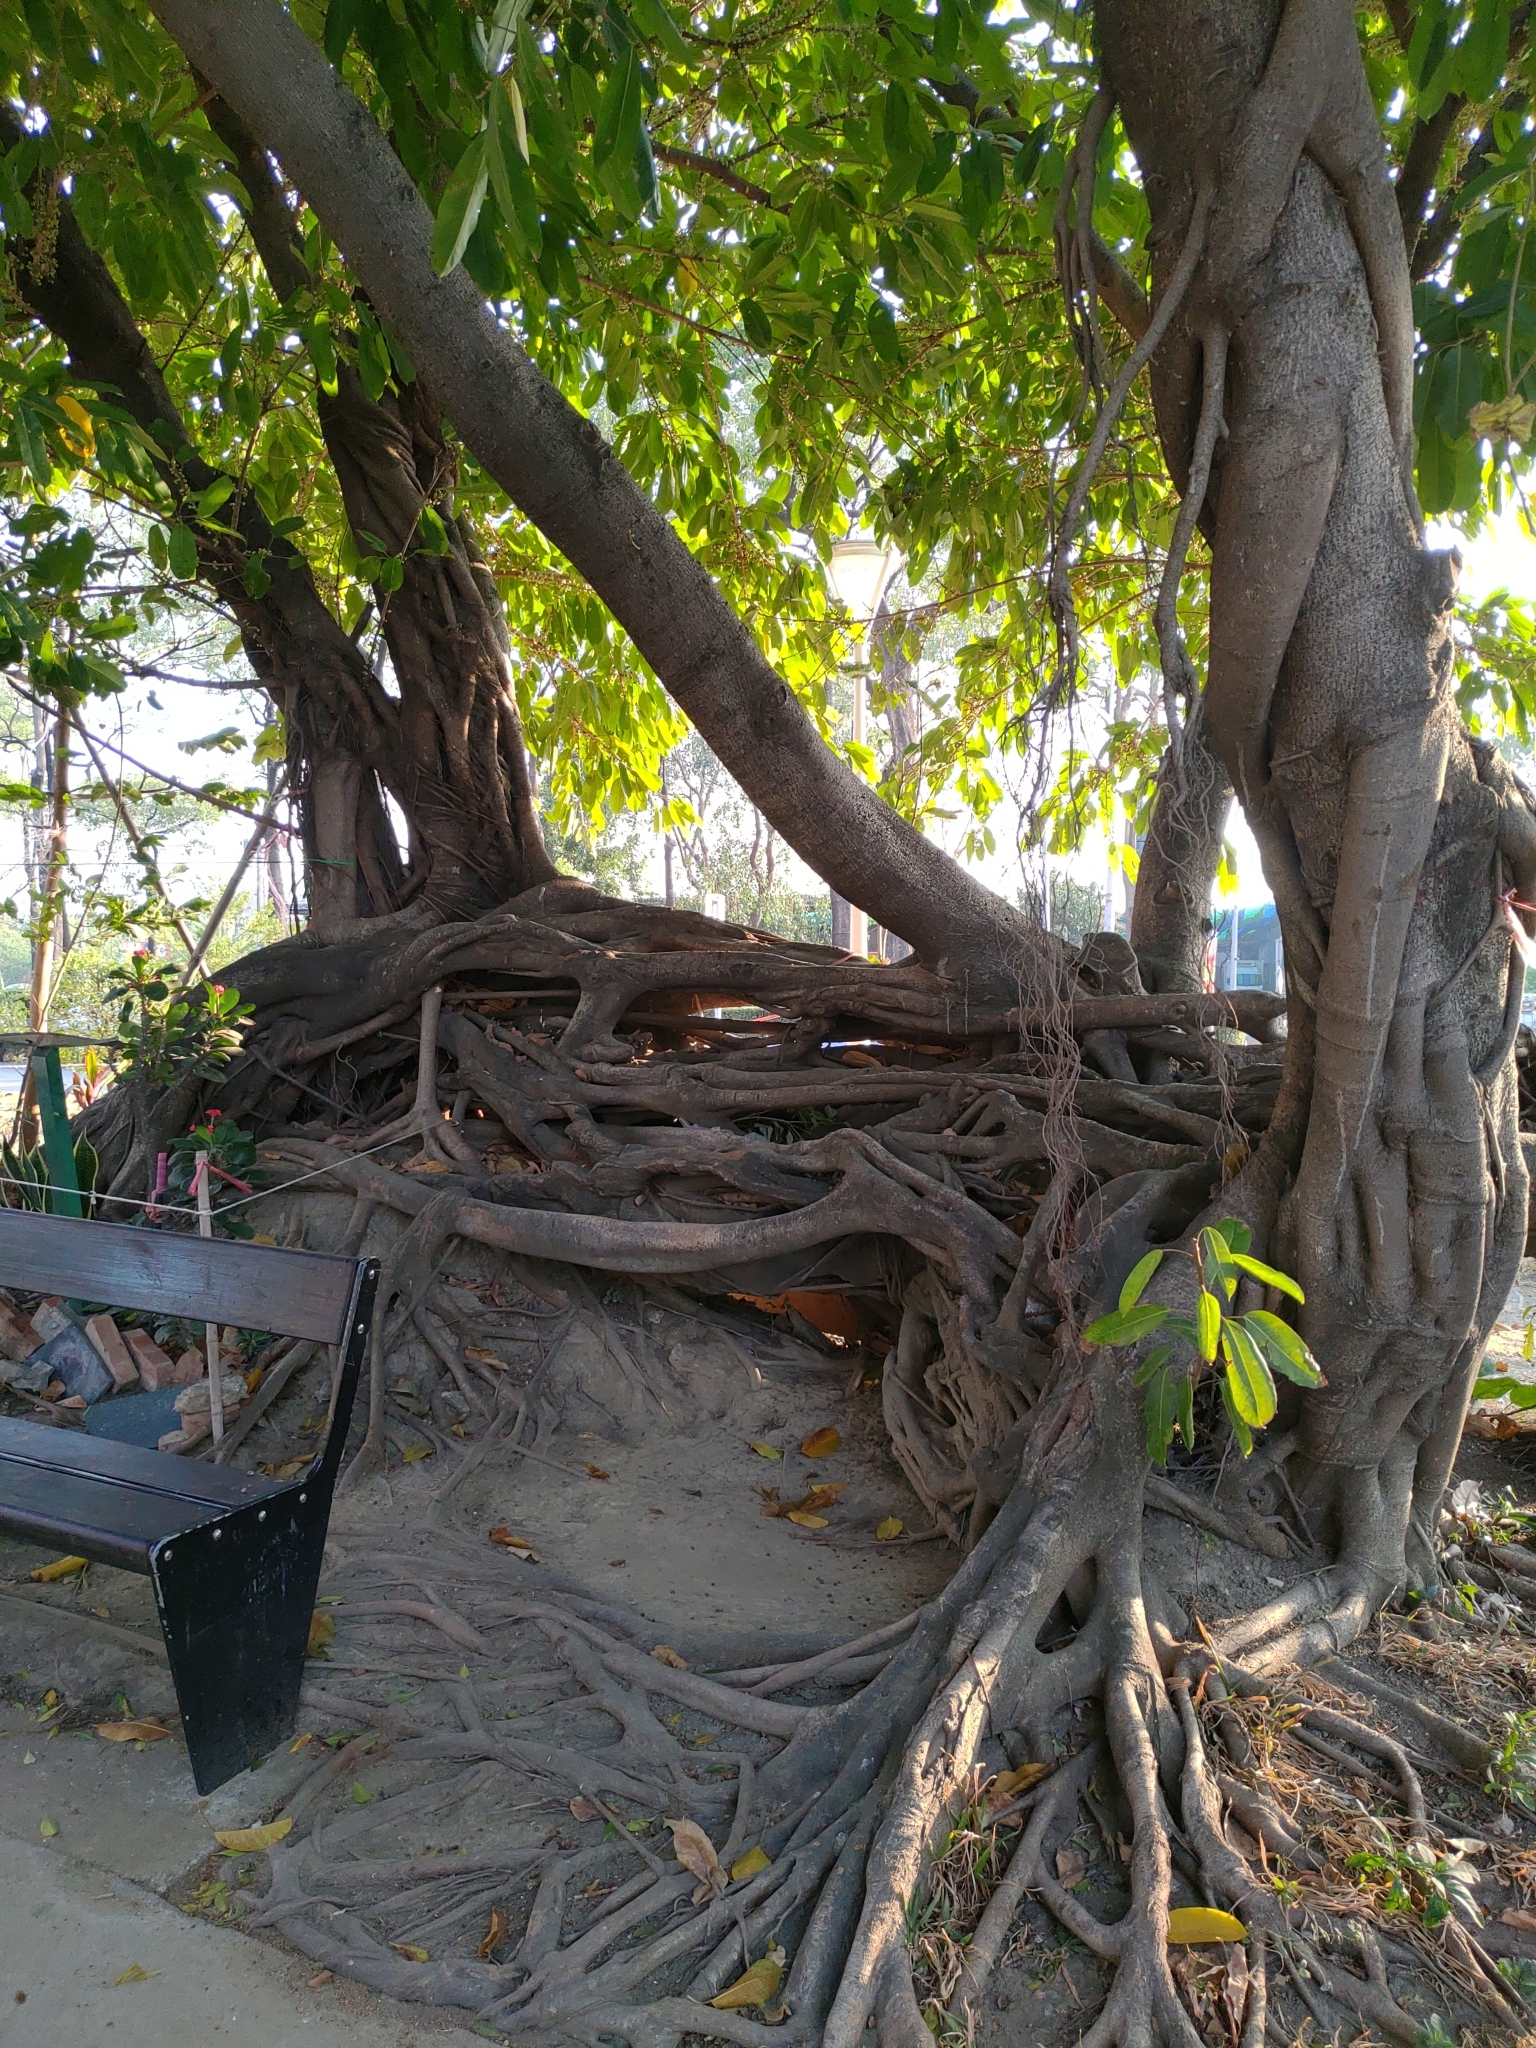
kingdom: Plantae
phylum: Tracheophyta
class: Magnoliopsida
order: Rosales
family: Moraceae
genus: Ficus
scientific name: Ficus subpisocarpa
